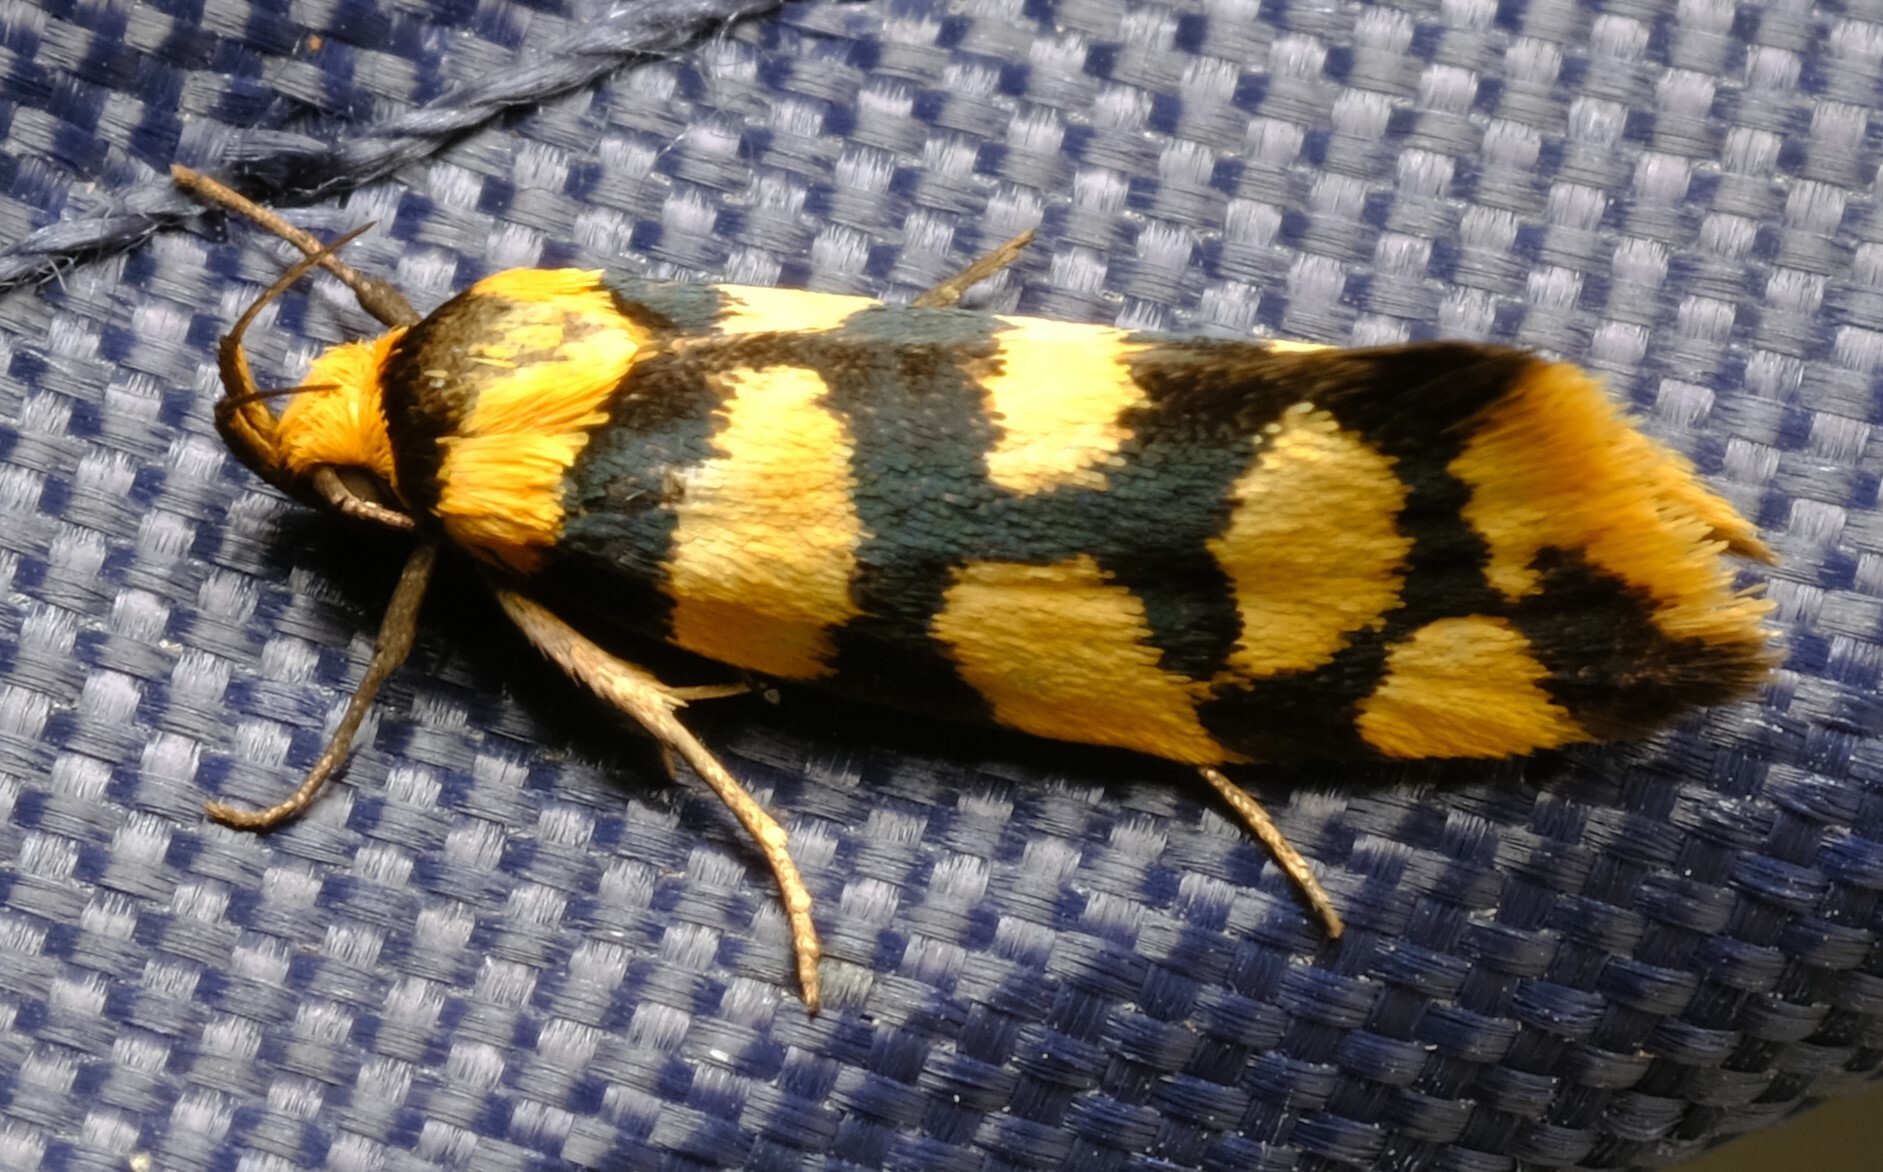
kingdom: Animalia
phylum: Arthropoda
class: Insecta
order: Lepidoptera
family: Oecophoridae
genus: Tanyzancla
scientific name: Tanyzancla argutella
